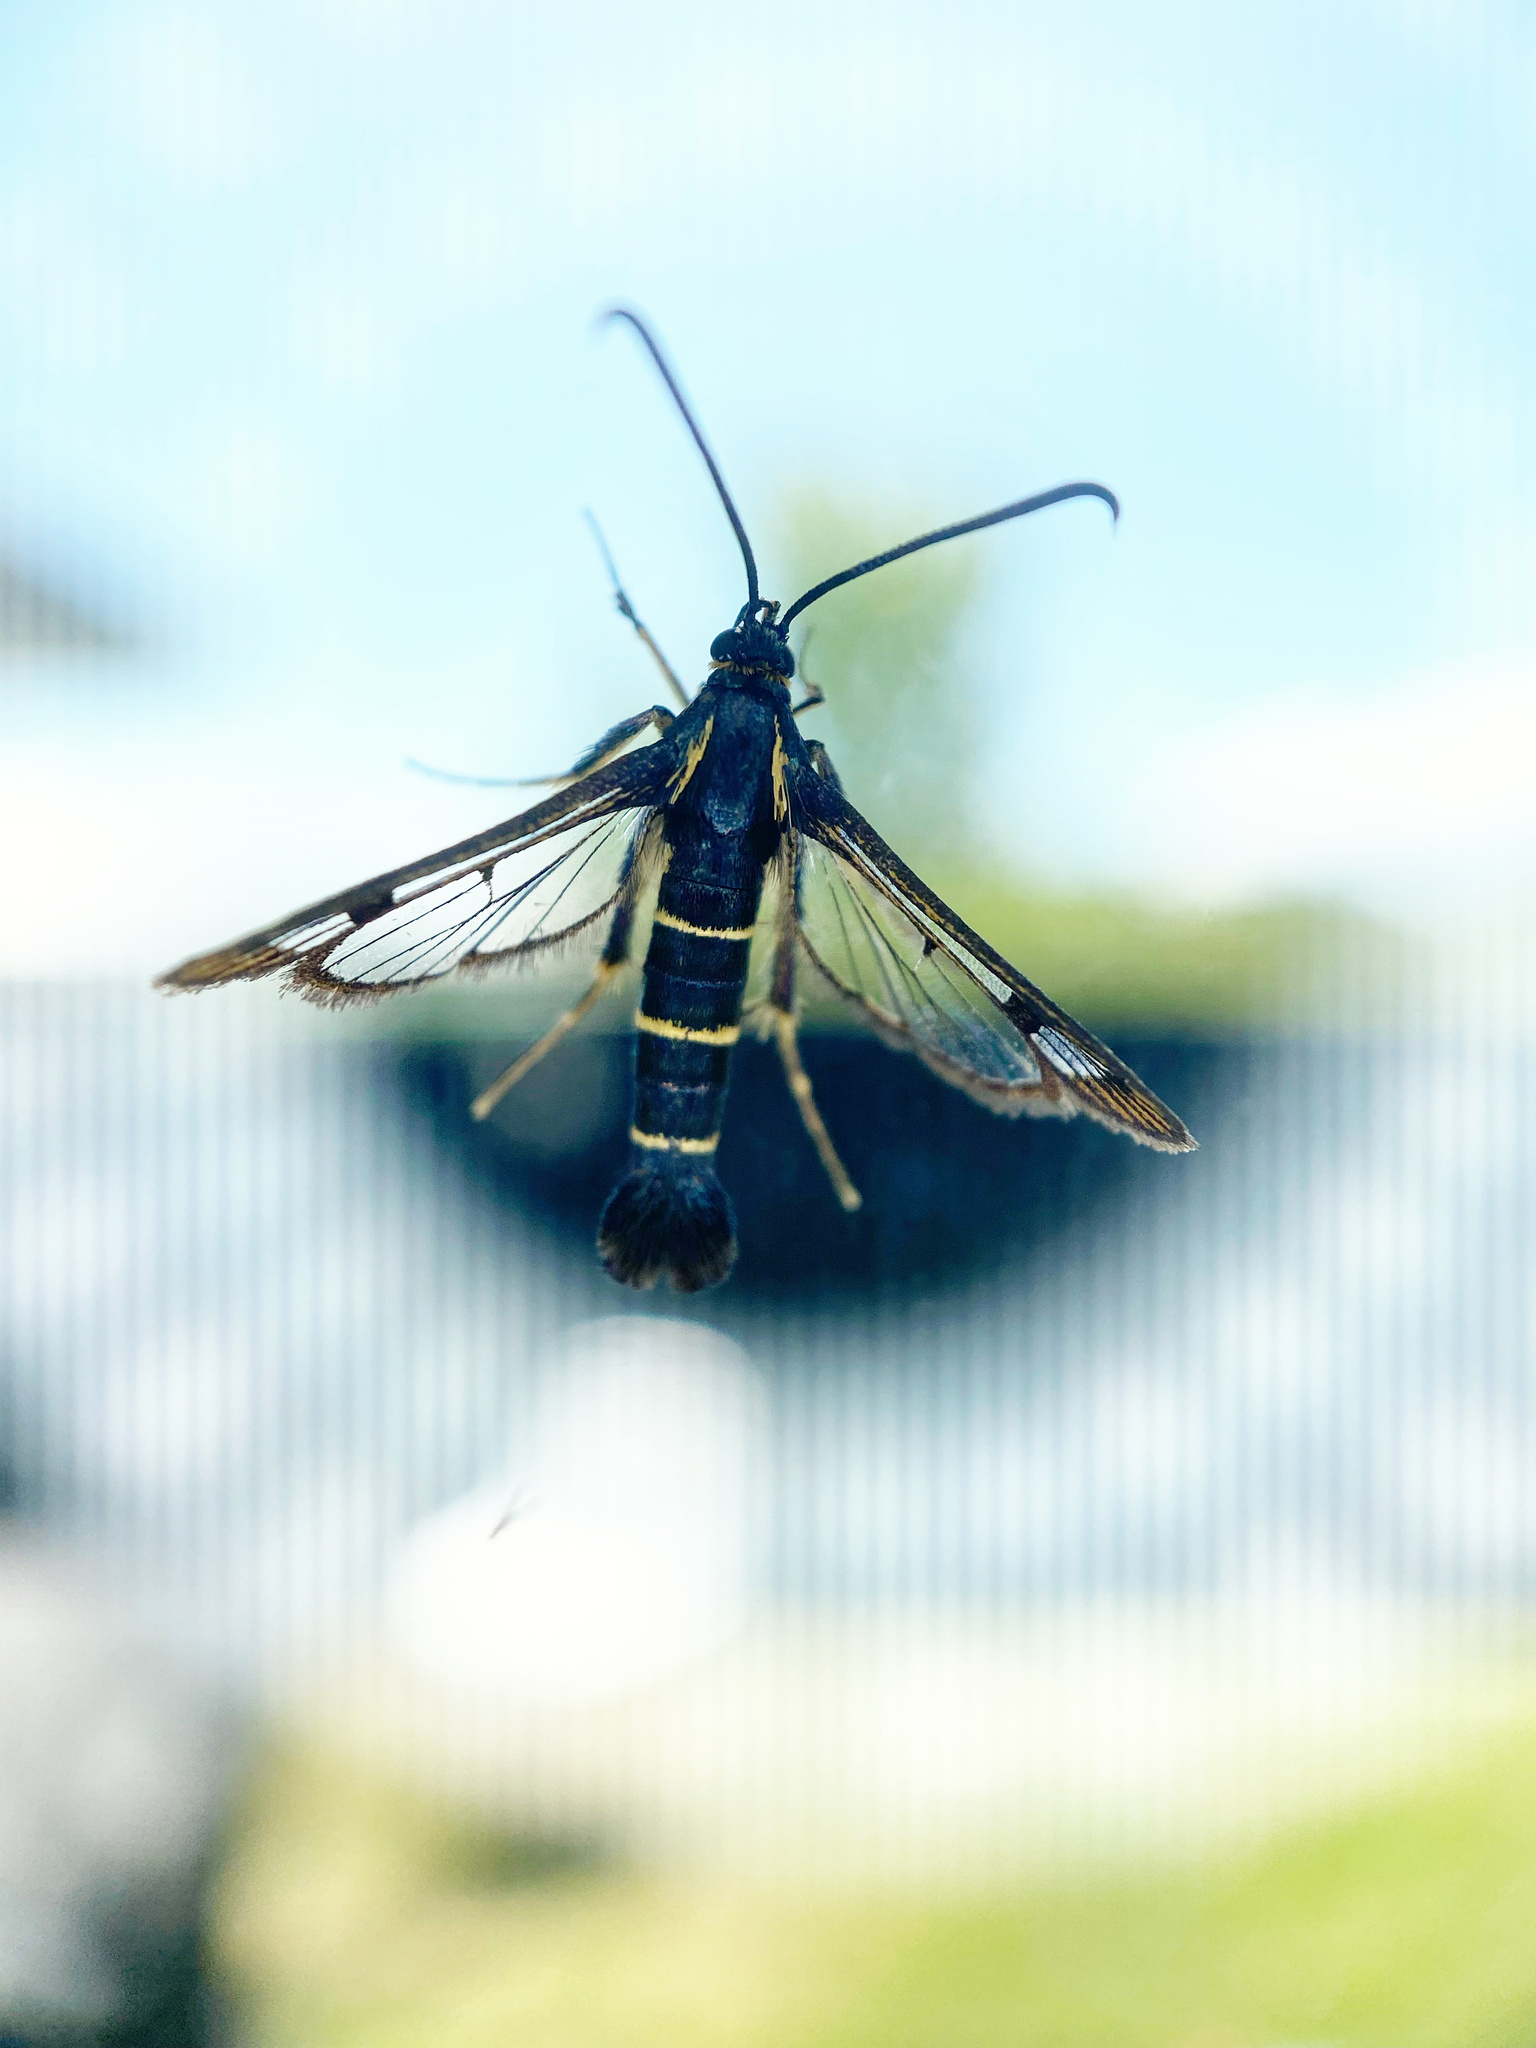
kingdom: Animalia
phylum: Arthropoda
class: Insecta
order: Lepidoptera
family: Sesiidae
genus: Synanthedon
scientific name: Synanthedon tipuliformis
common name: Currant clearwing
